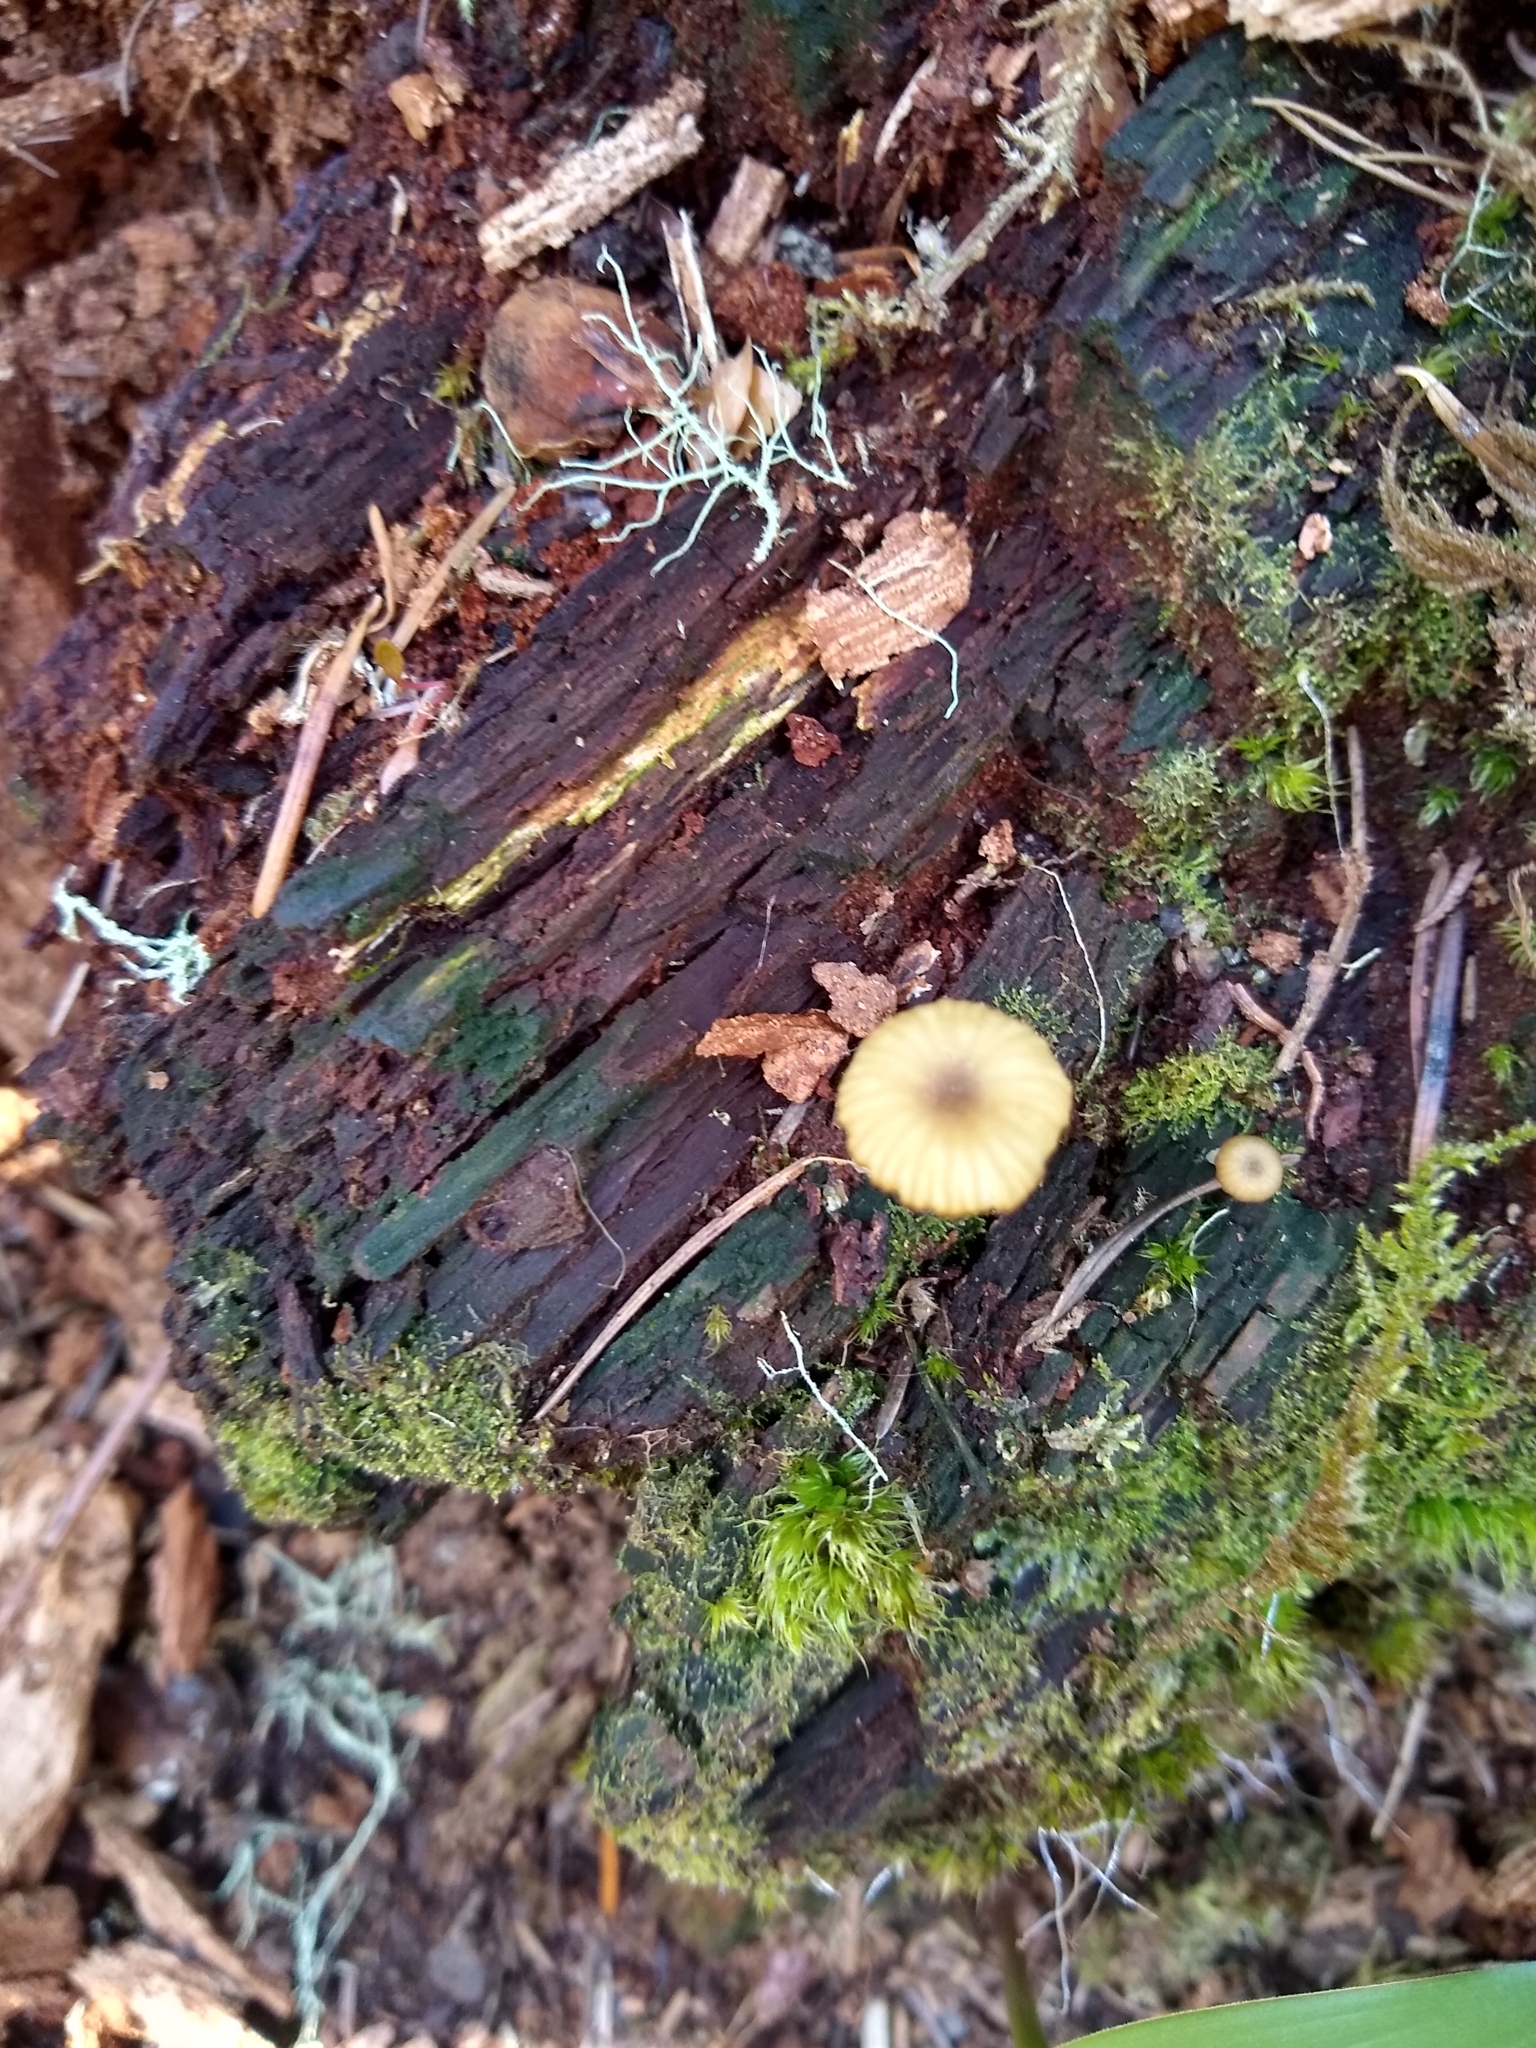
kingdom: Fungi
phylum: Basidiomycota
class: Agaricomycetes
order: Agaricales
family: Hygrophoraceae
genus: Lichenomphalia
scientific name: Lichenomphalia
